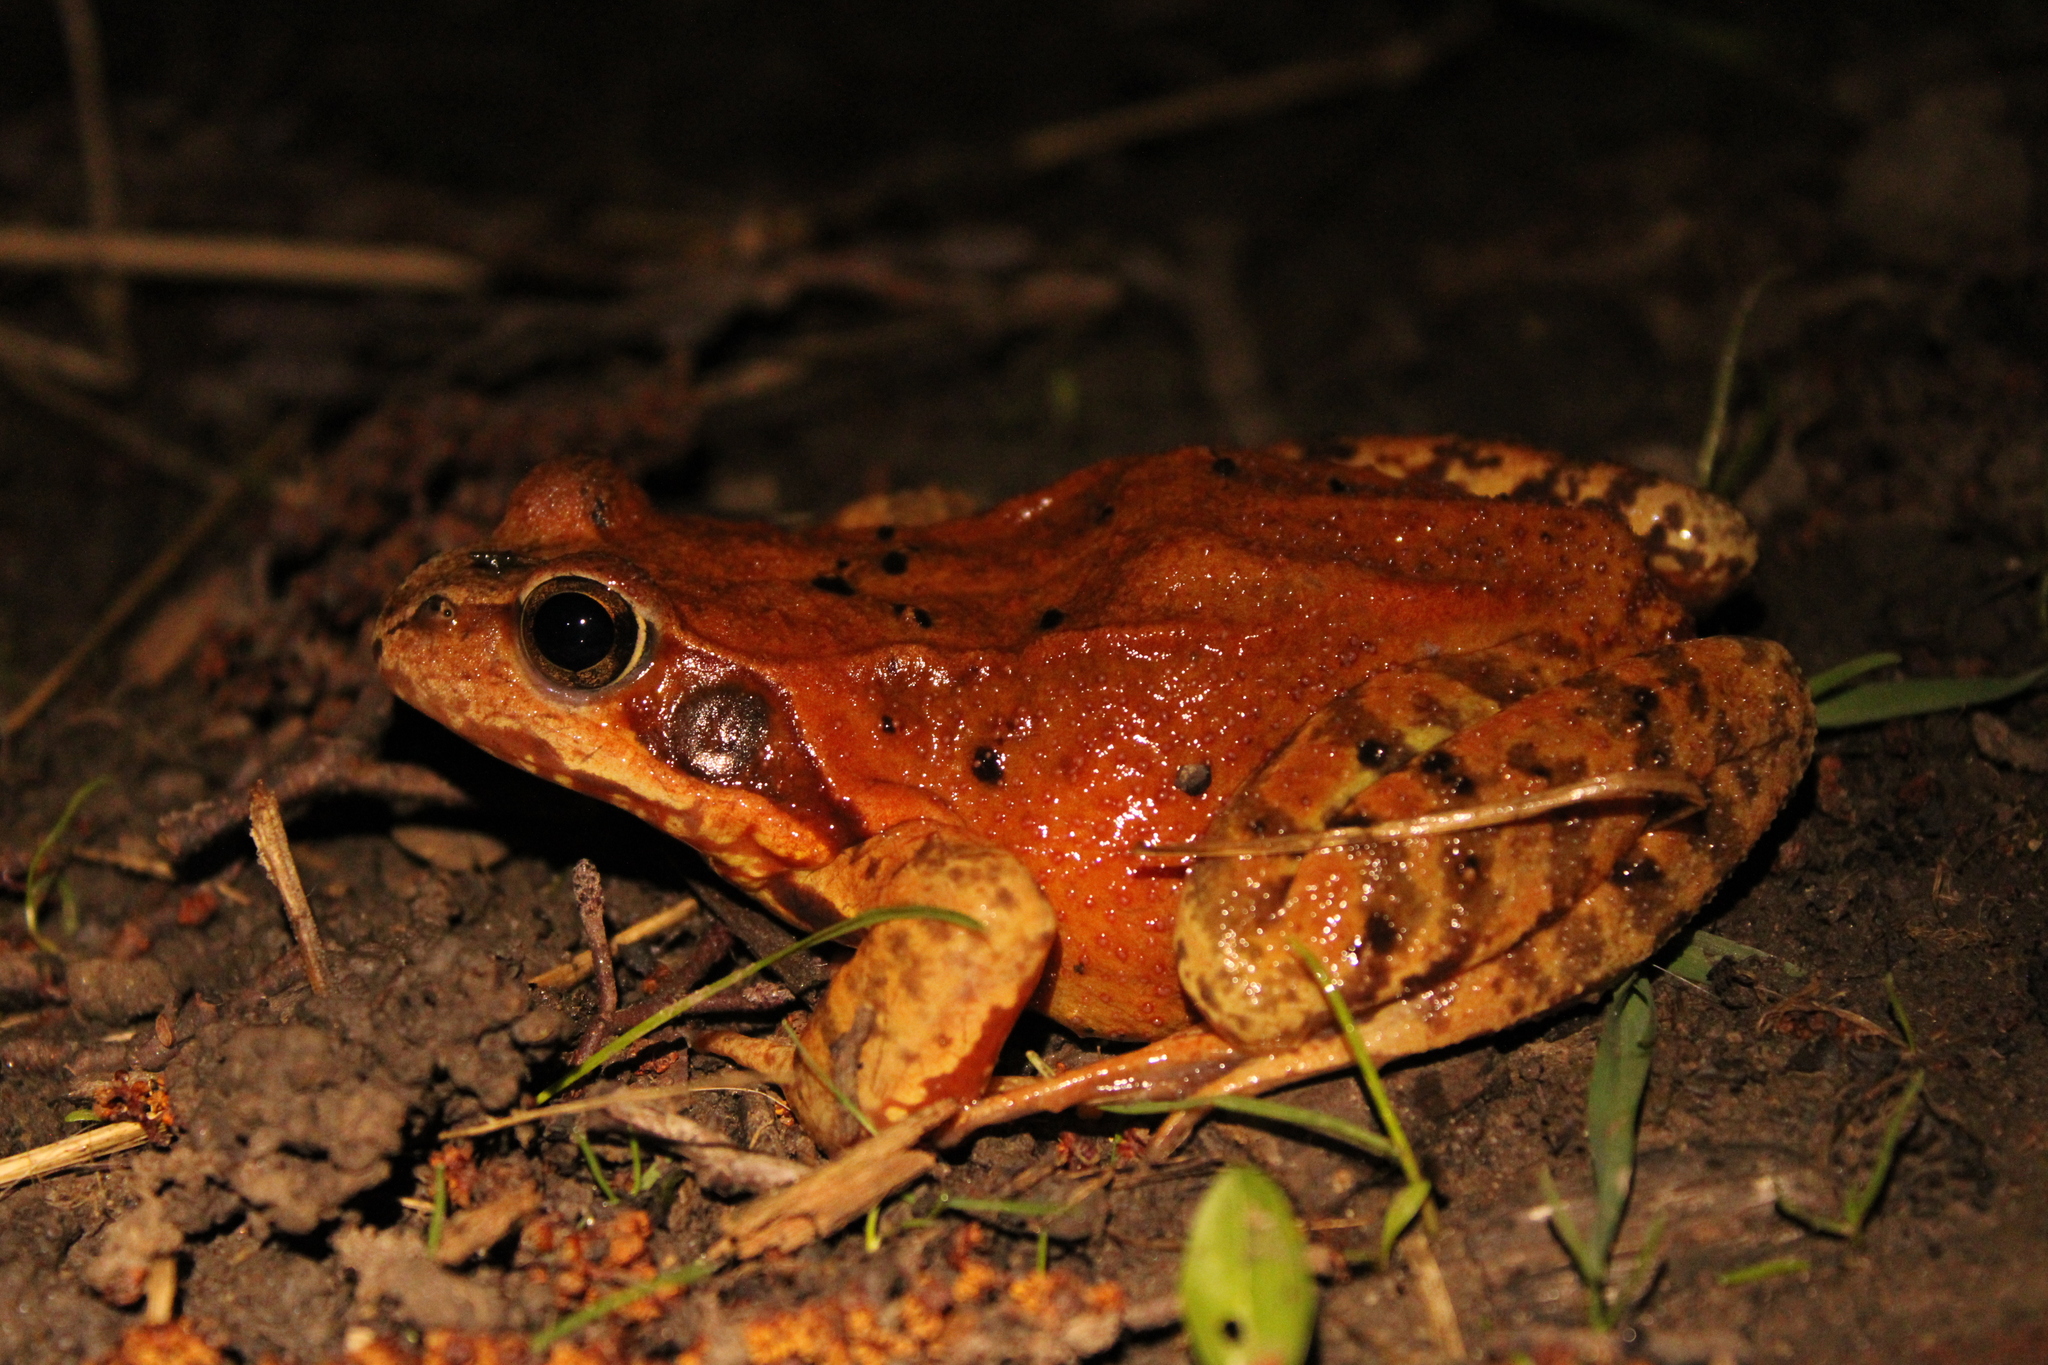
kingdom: Animalia
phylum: Chordata
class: Amphibia
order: Anura
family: Ranidae
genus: Rana
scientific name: Rana temporaria
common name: Common frog
